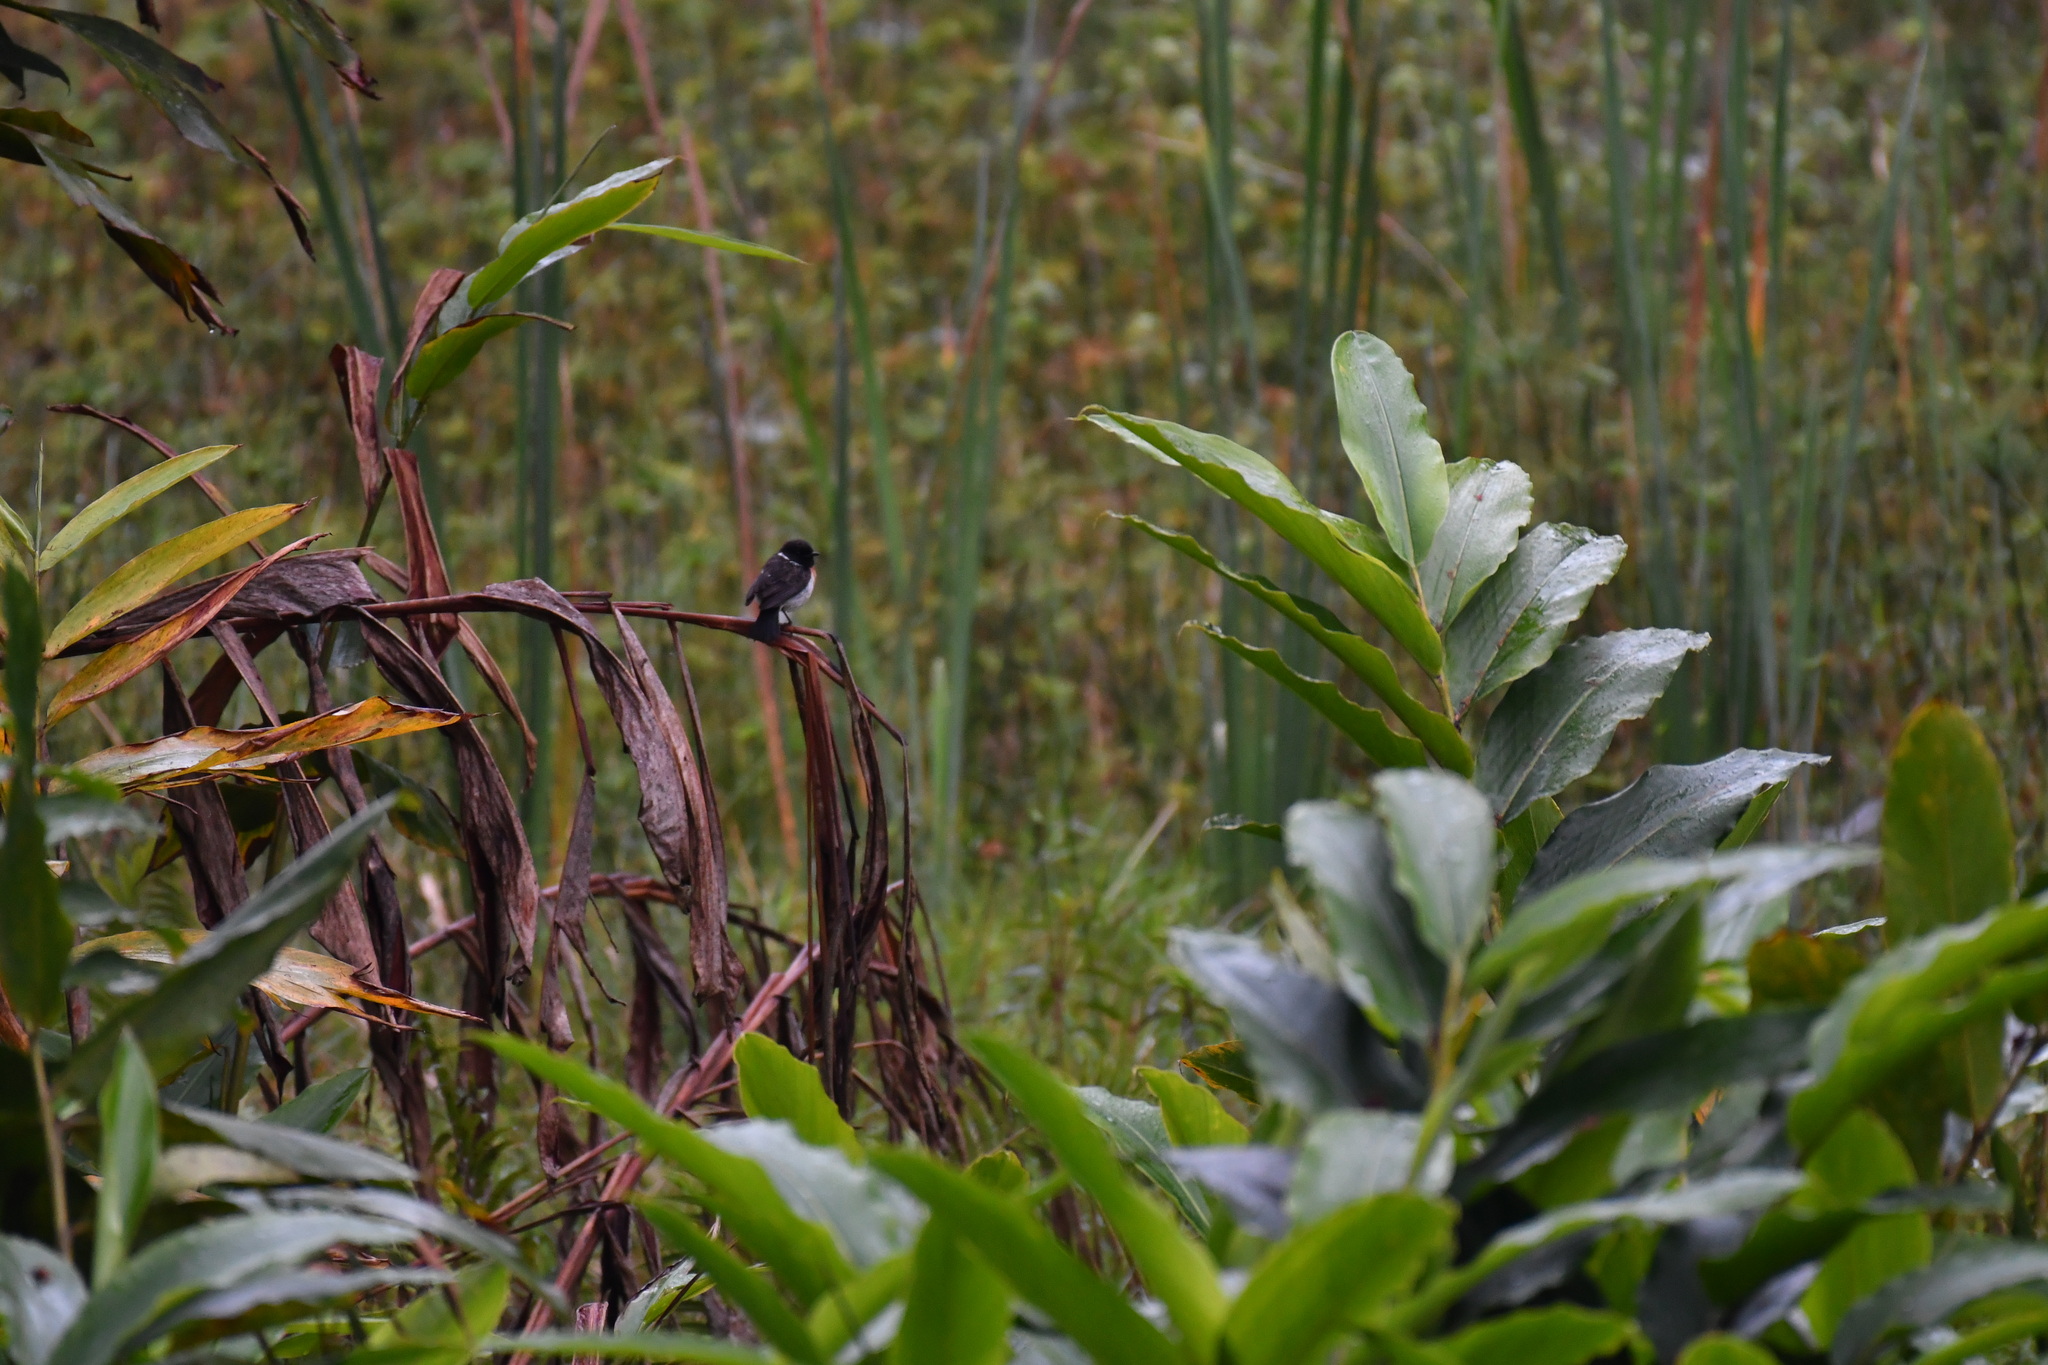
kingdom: Animalia
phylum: Chordata
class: Aves
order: Passeriformes
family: Muscicapidae
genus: Saxicola
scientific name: Saxicola torquatus
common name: African stonechat
